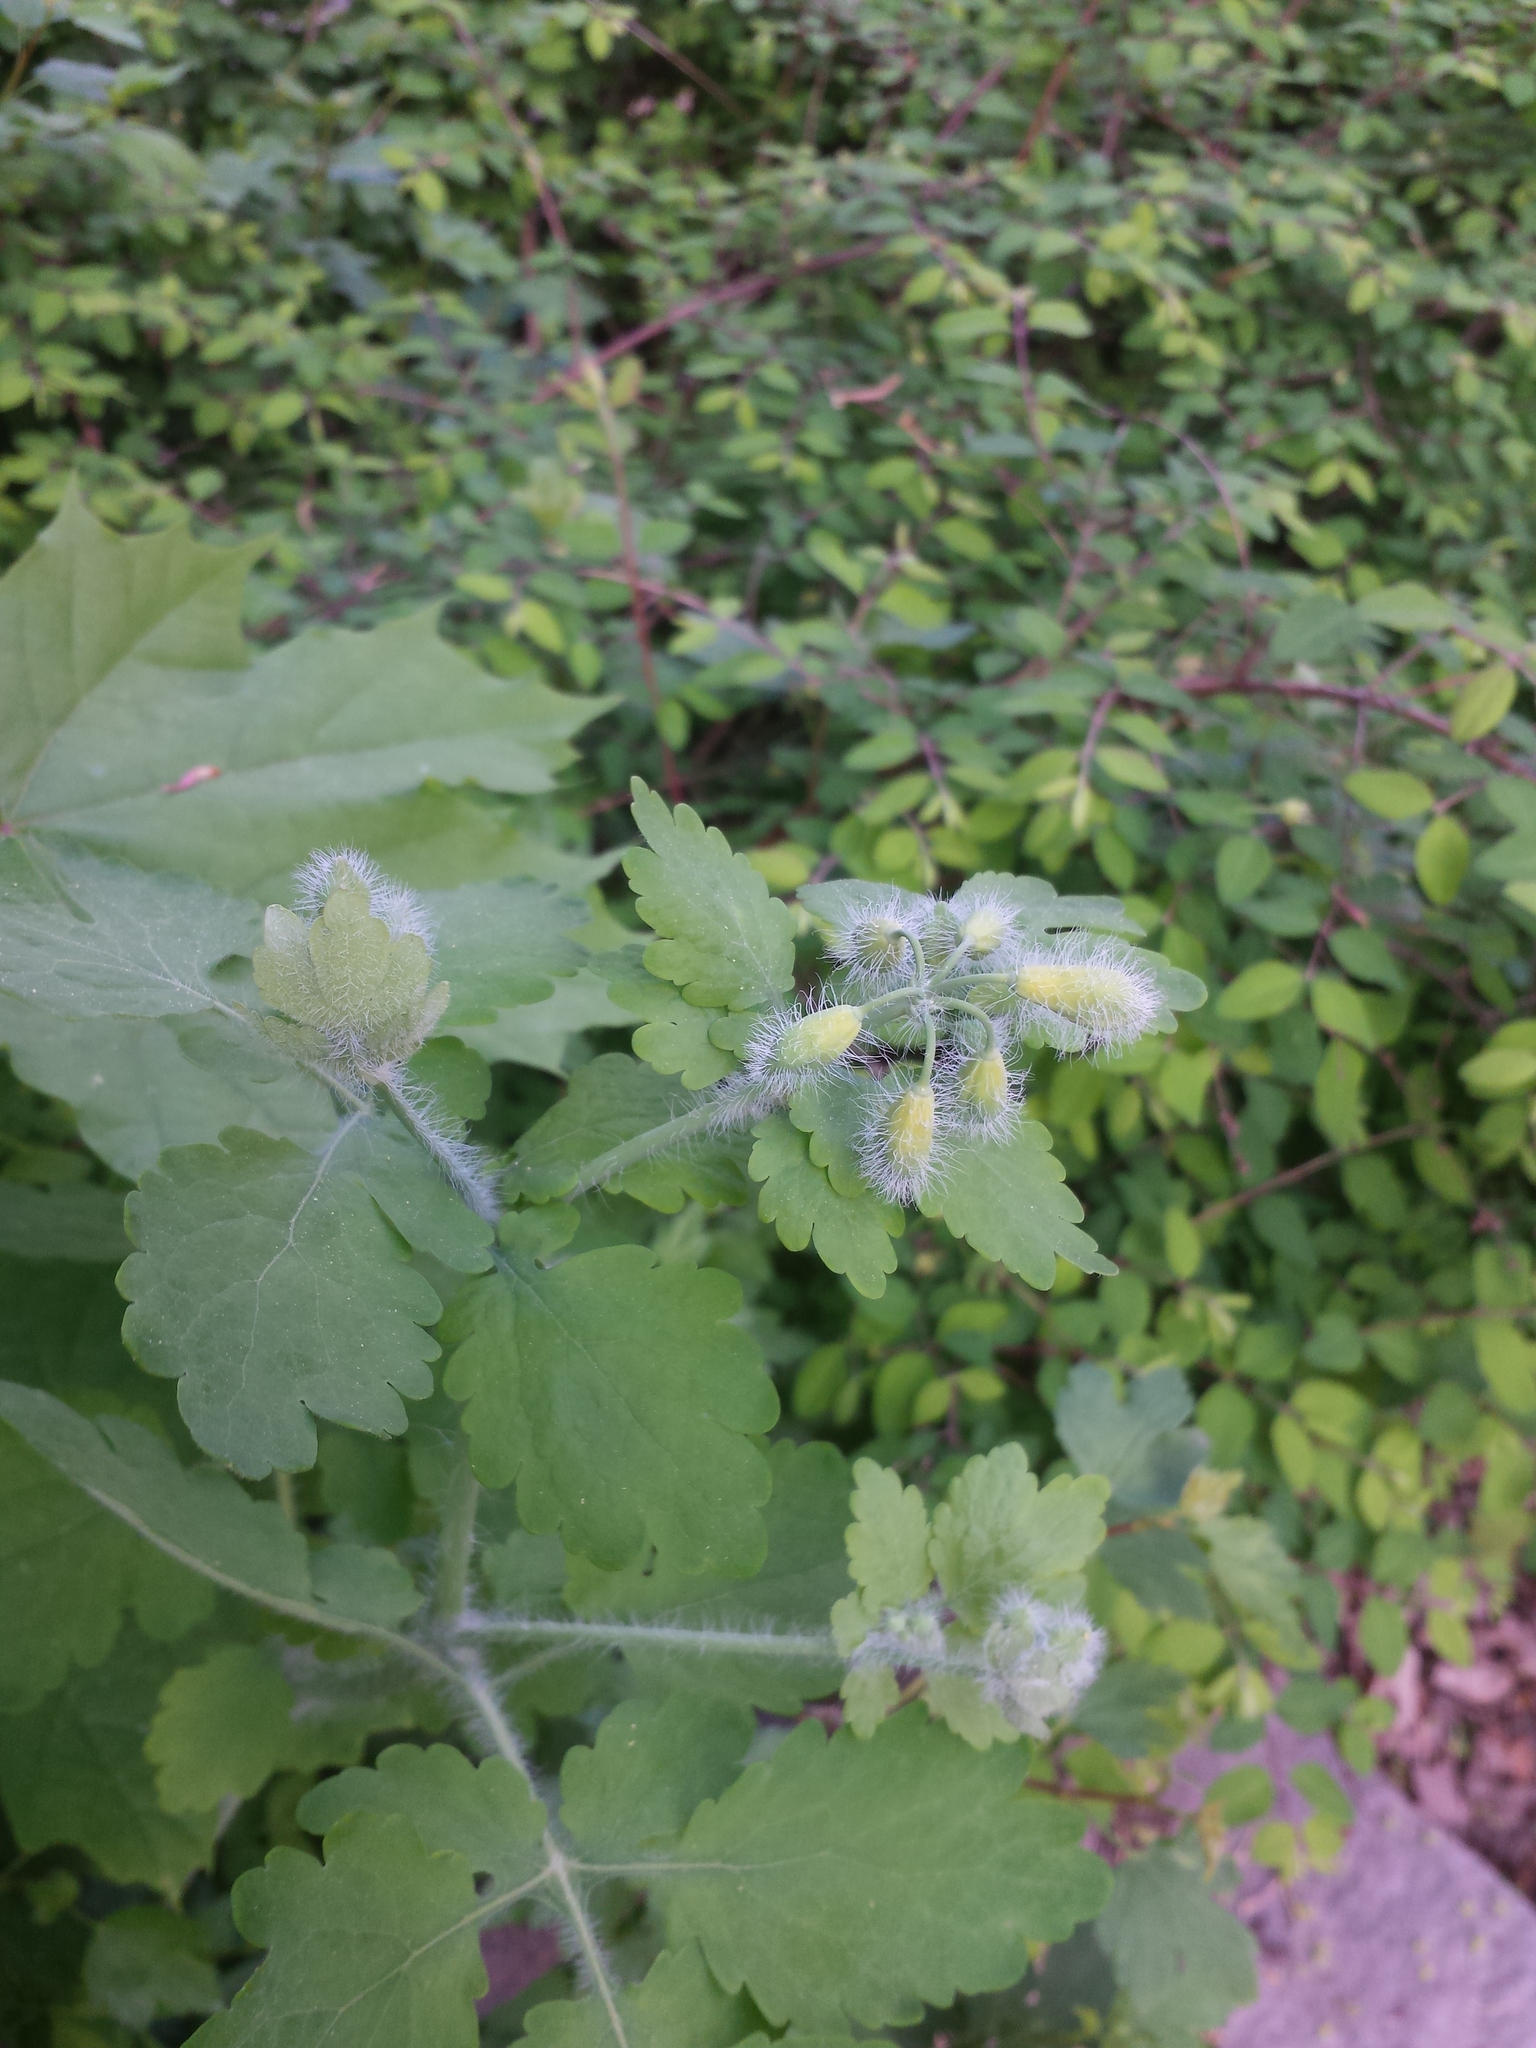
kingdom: Plantae
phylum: Tracheophyta
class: Magnoliopsida
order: Ranunculales
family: Papaveraceae
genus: Chelidonium
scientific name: Chelidonium majus
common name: Greater celandine
